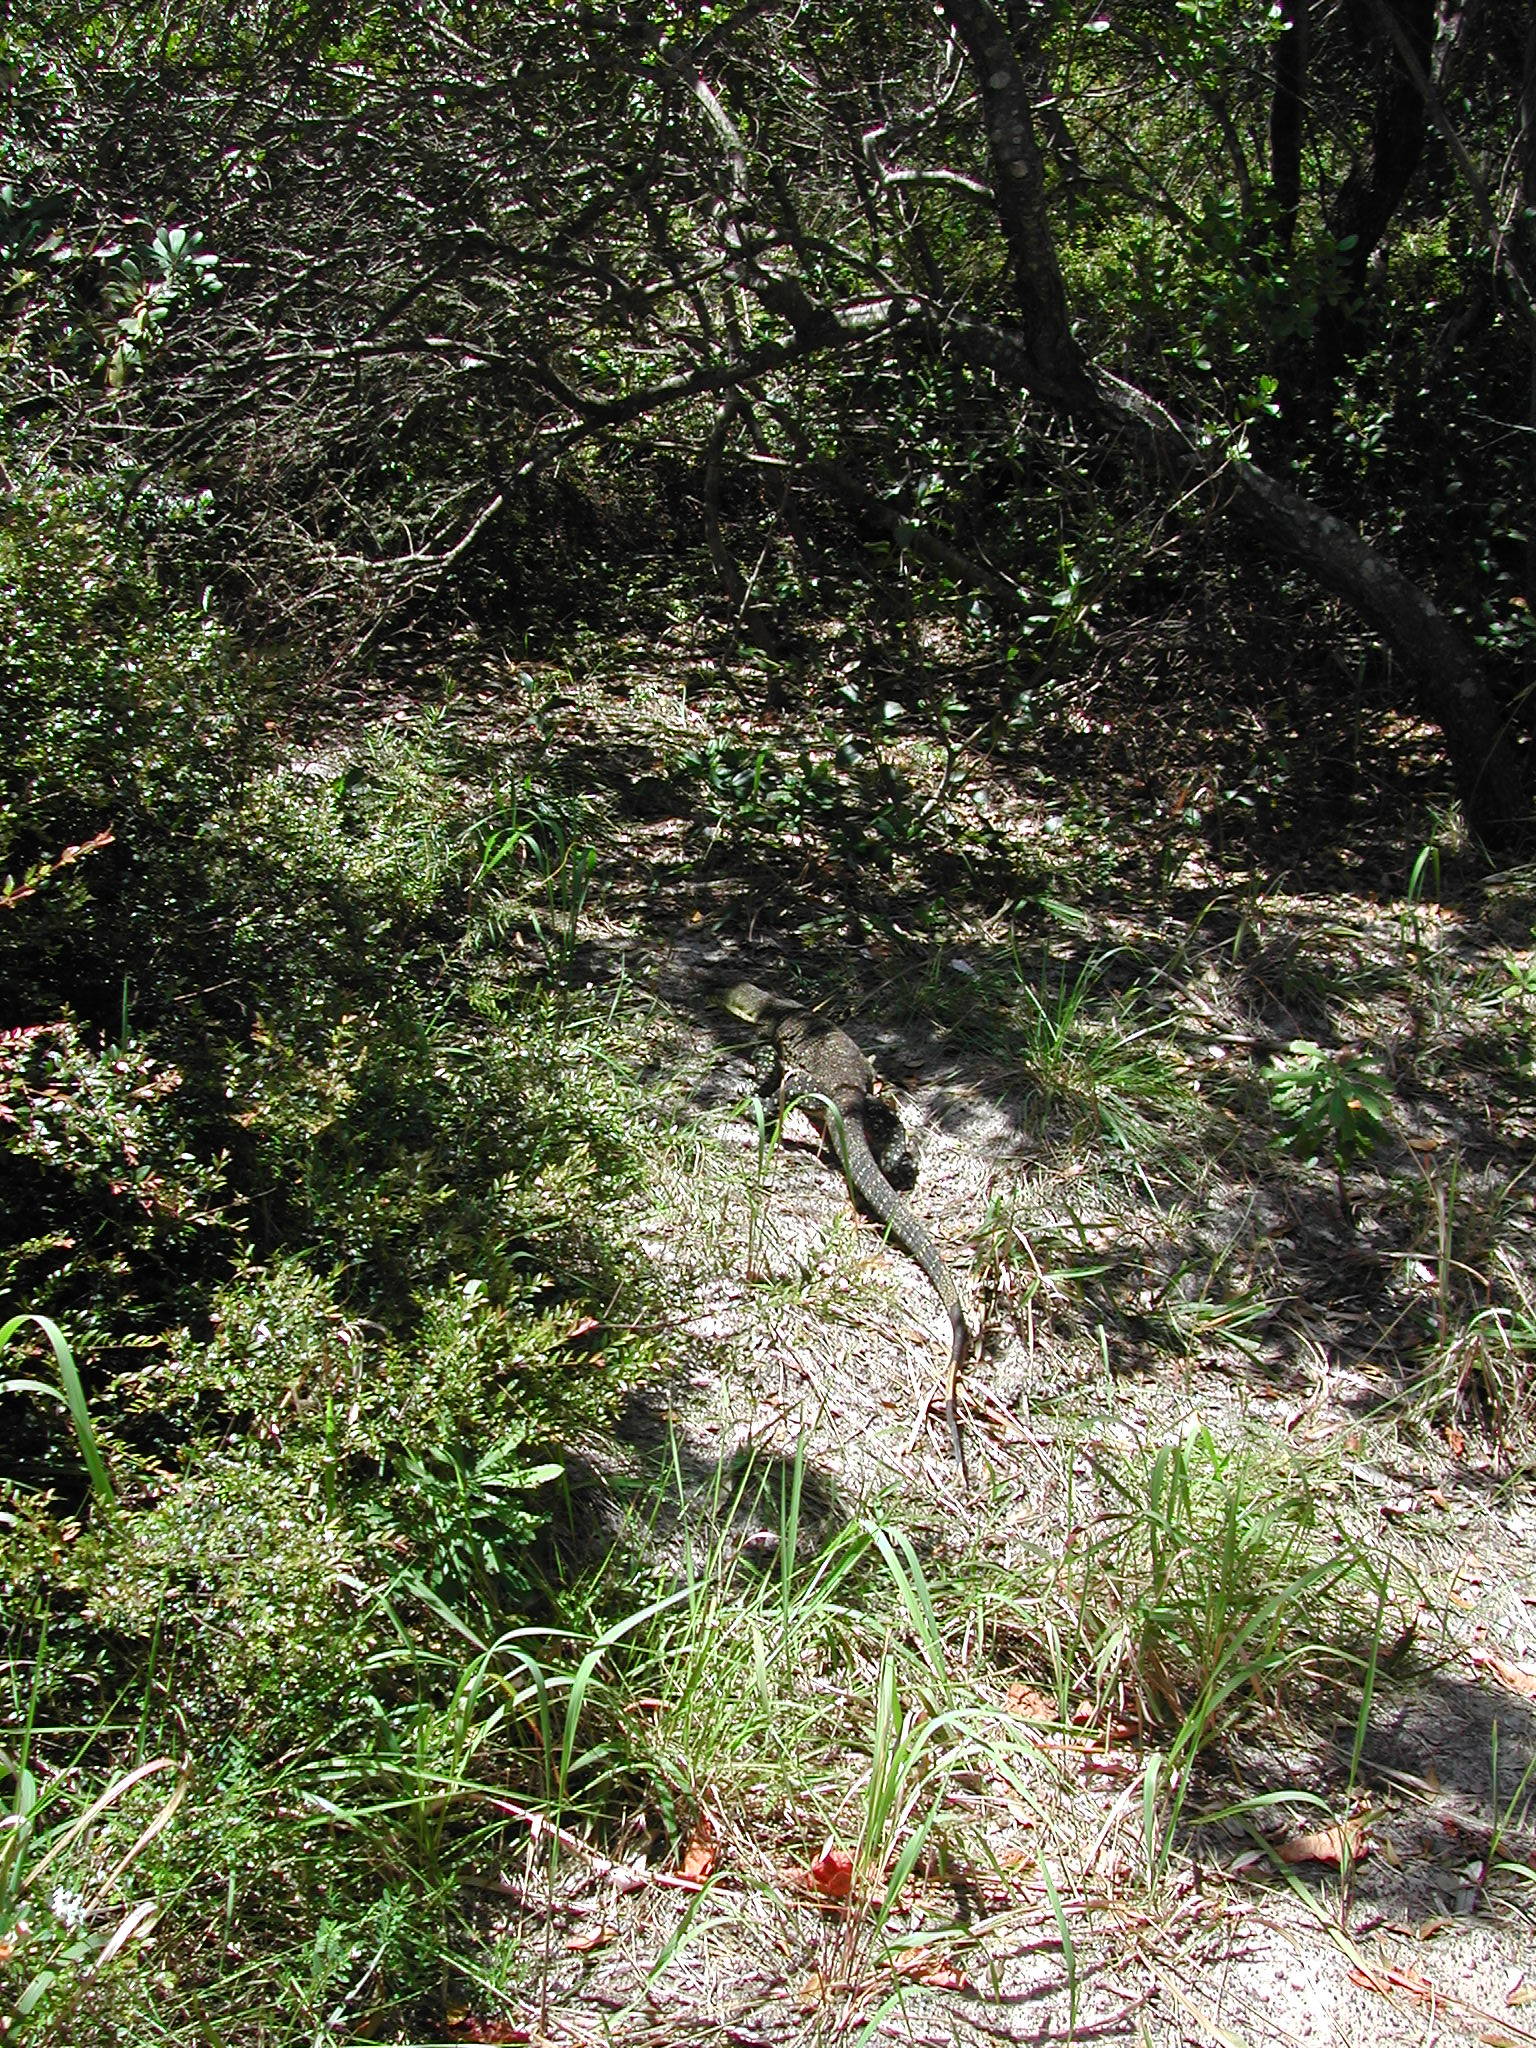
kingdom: Animalia
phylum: Chordata
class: Squamata
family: Varanidae
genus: Varanus
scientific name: Varanus varius
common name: Lace monitor
